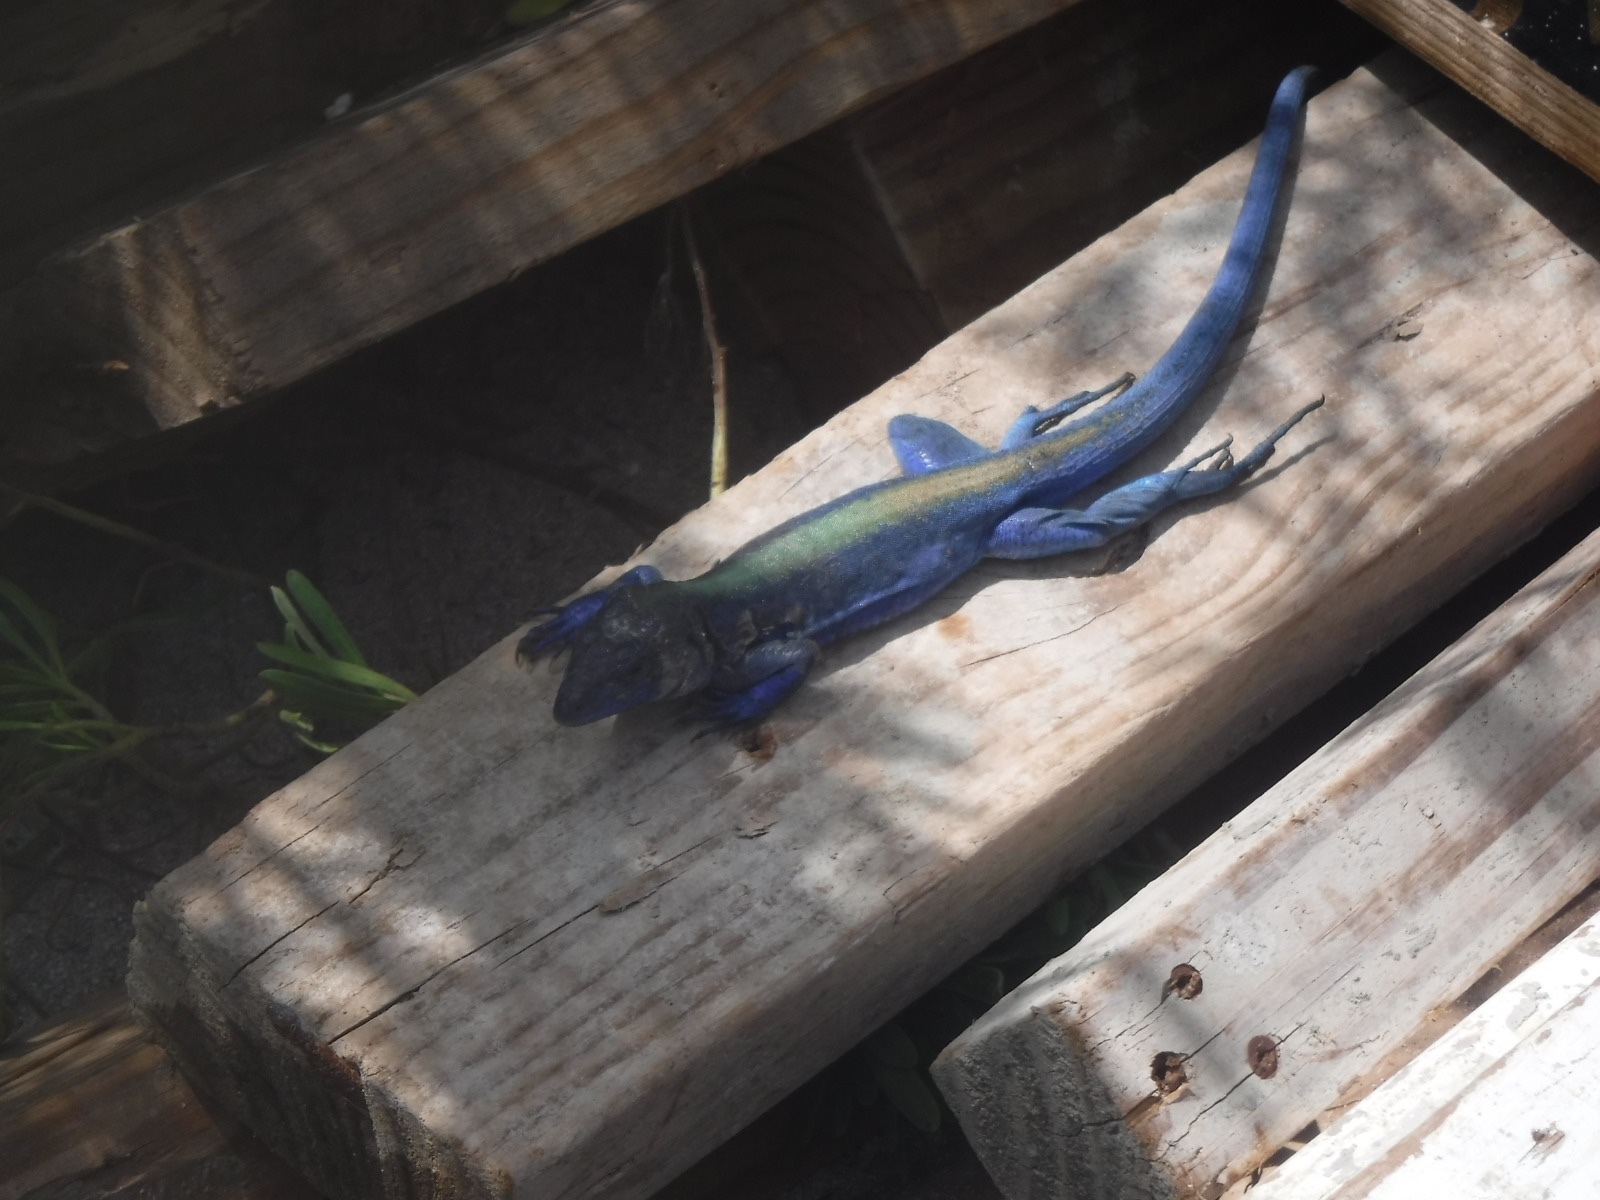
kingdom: Animalia
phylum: Chordata
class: Squamata
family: Teiidae
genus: Cnemidophorus
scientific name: Cnemidophorus espeuti
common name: Rainbow lizard
